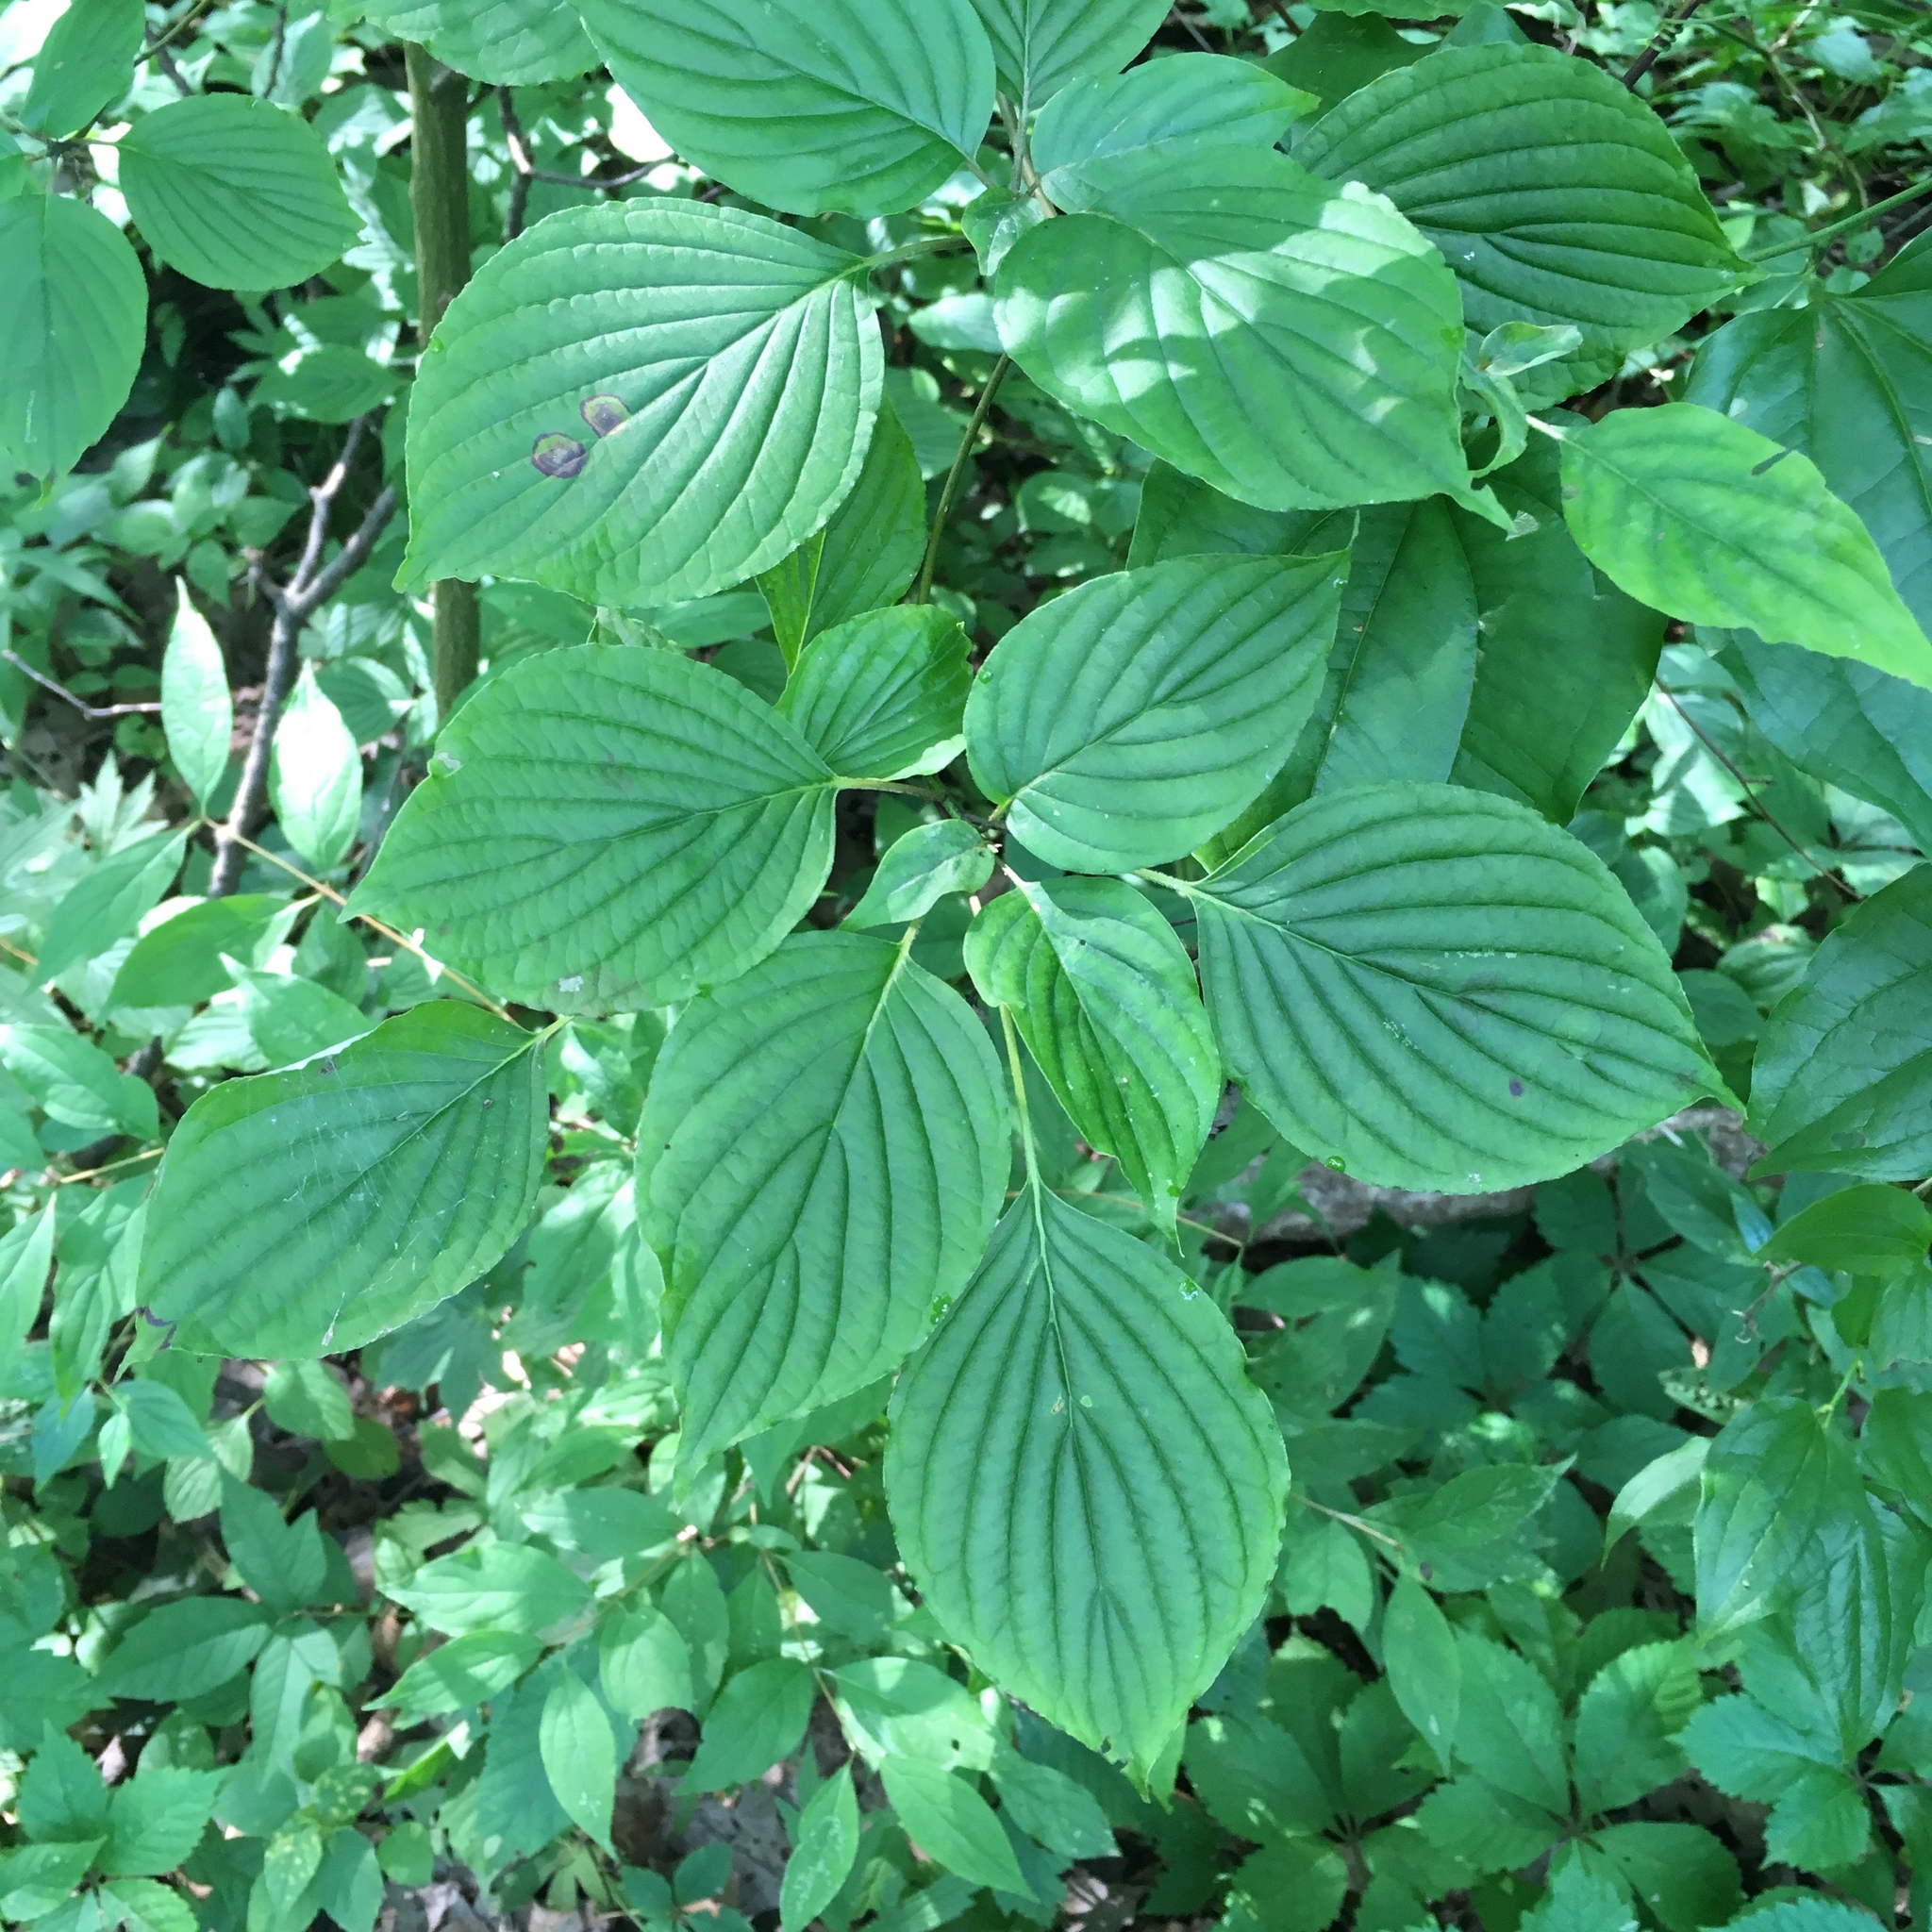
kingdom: Plantae
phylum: Tracheophyta
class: Magnoliopsida
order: Cornales
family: Cornaceae
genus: Cornus
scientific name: Cornus alternifolia
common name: Pagoda dogwood
